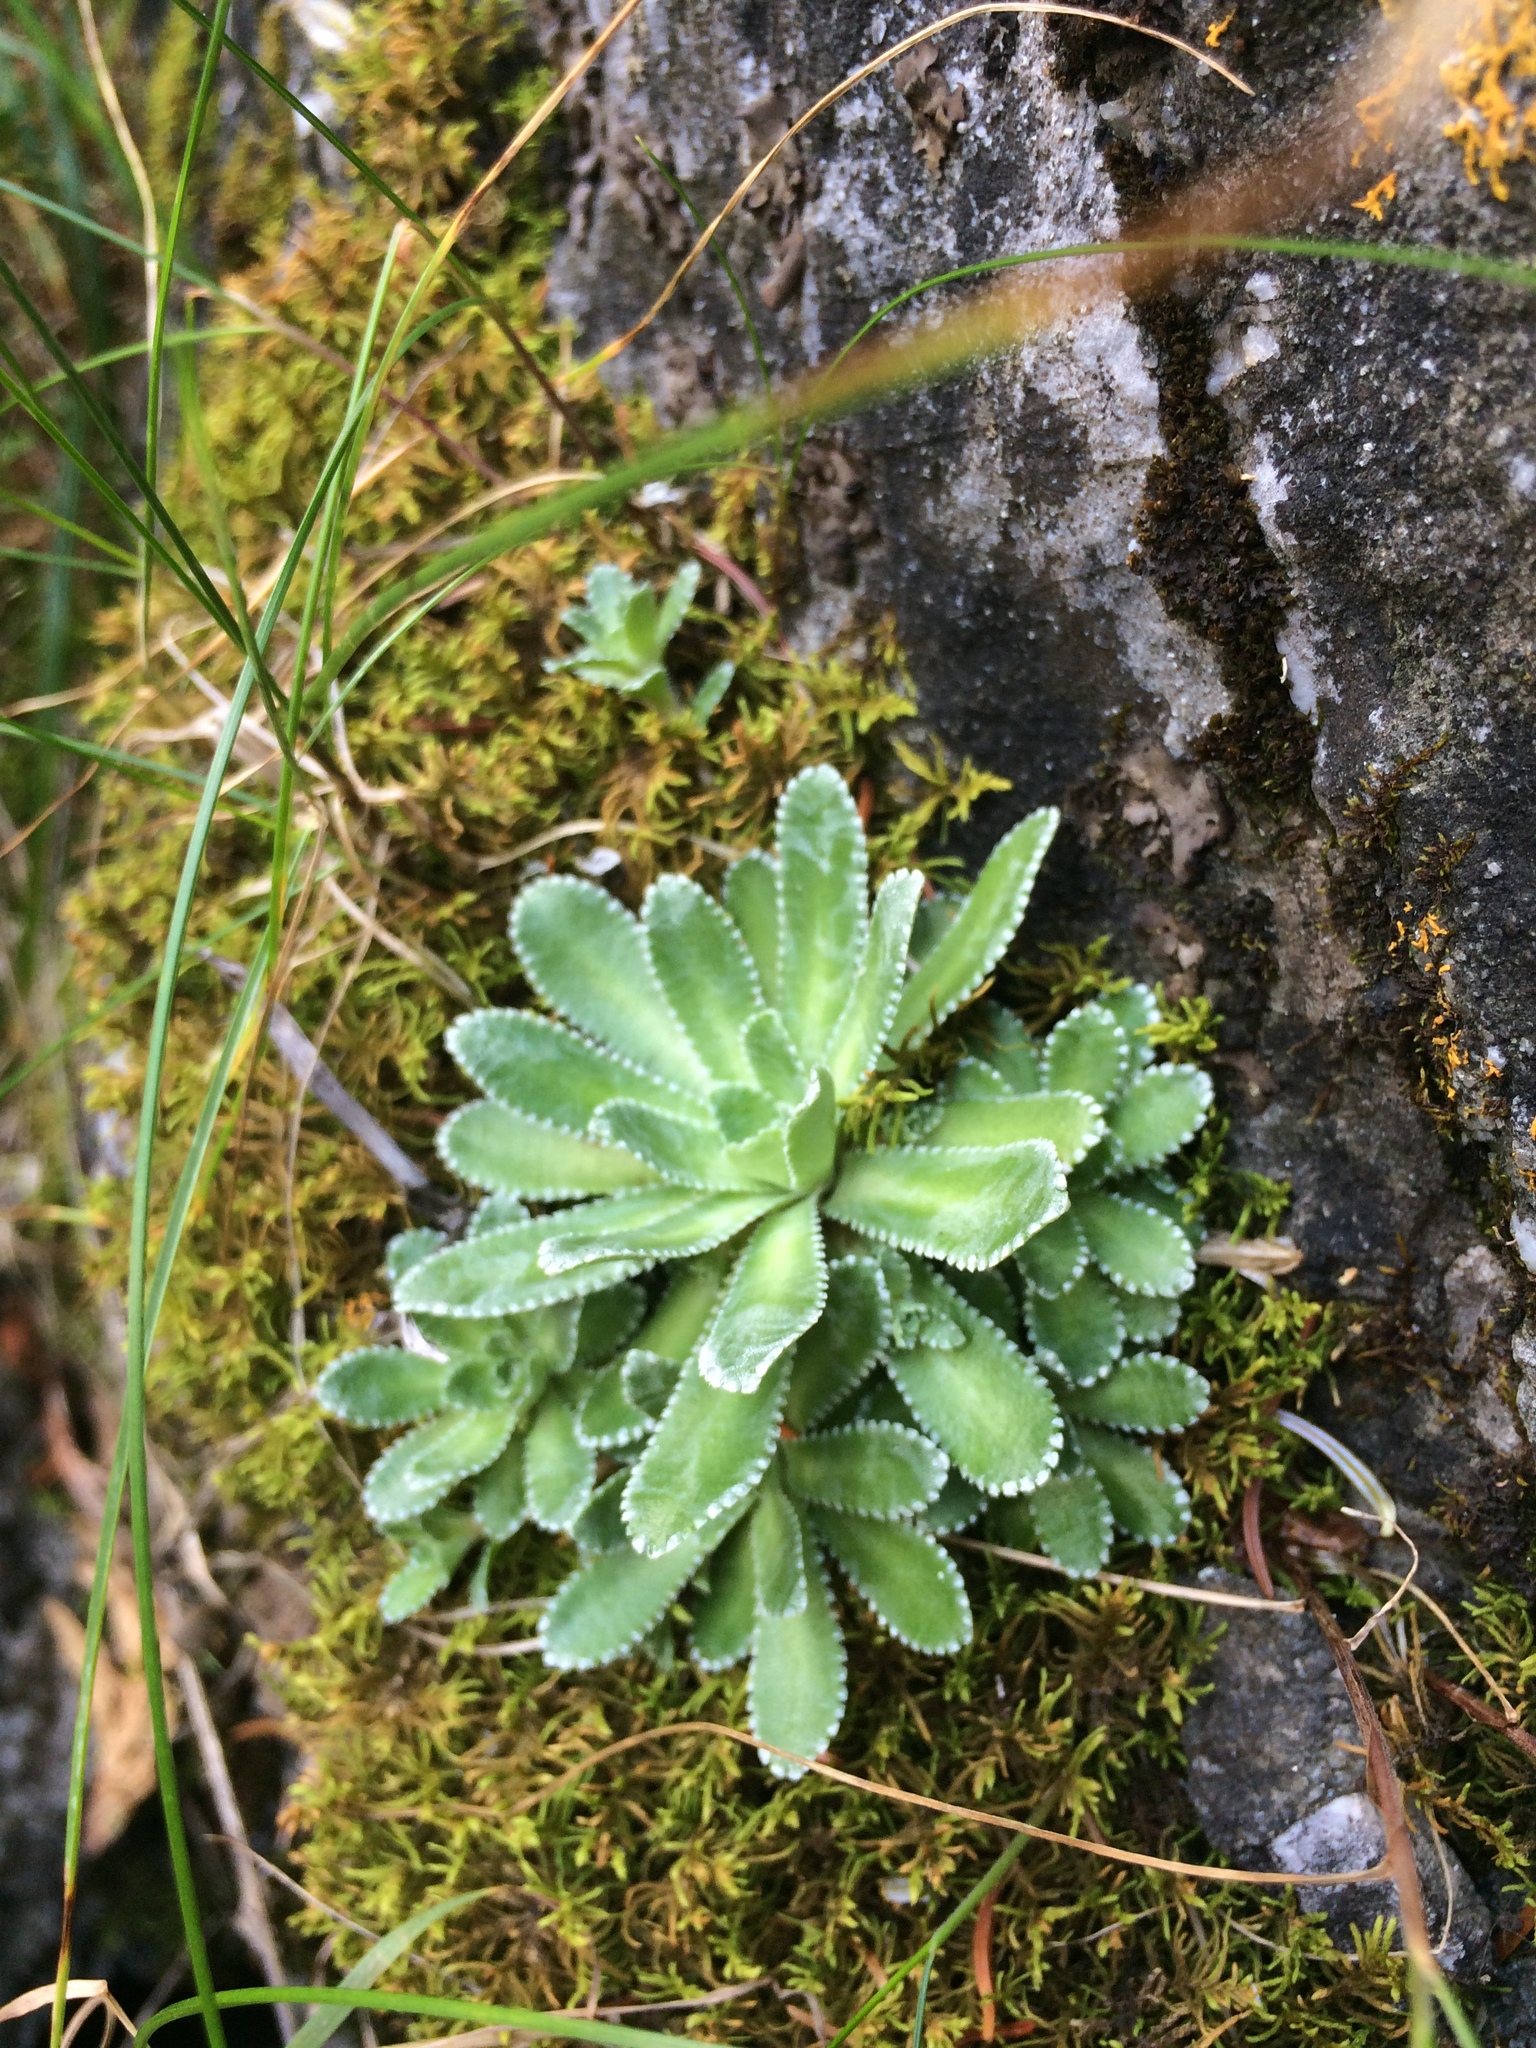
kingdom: Plantae
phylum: Tracheophyta
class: Magnoliopsida
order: Saxifragales
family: Saxifragaceae
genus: Saxifraga
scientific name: Saxifraga paniculata
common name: Livelong saxifrage
